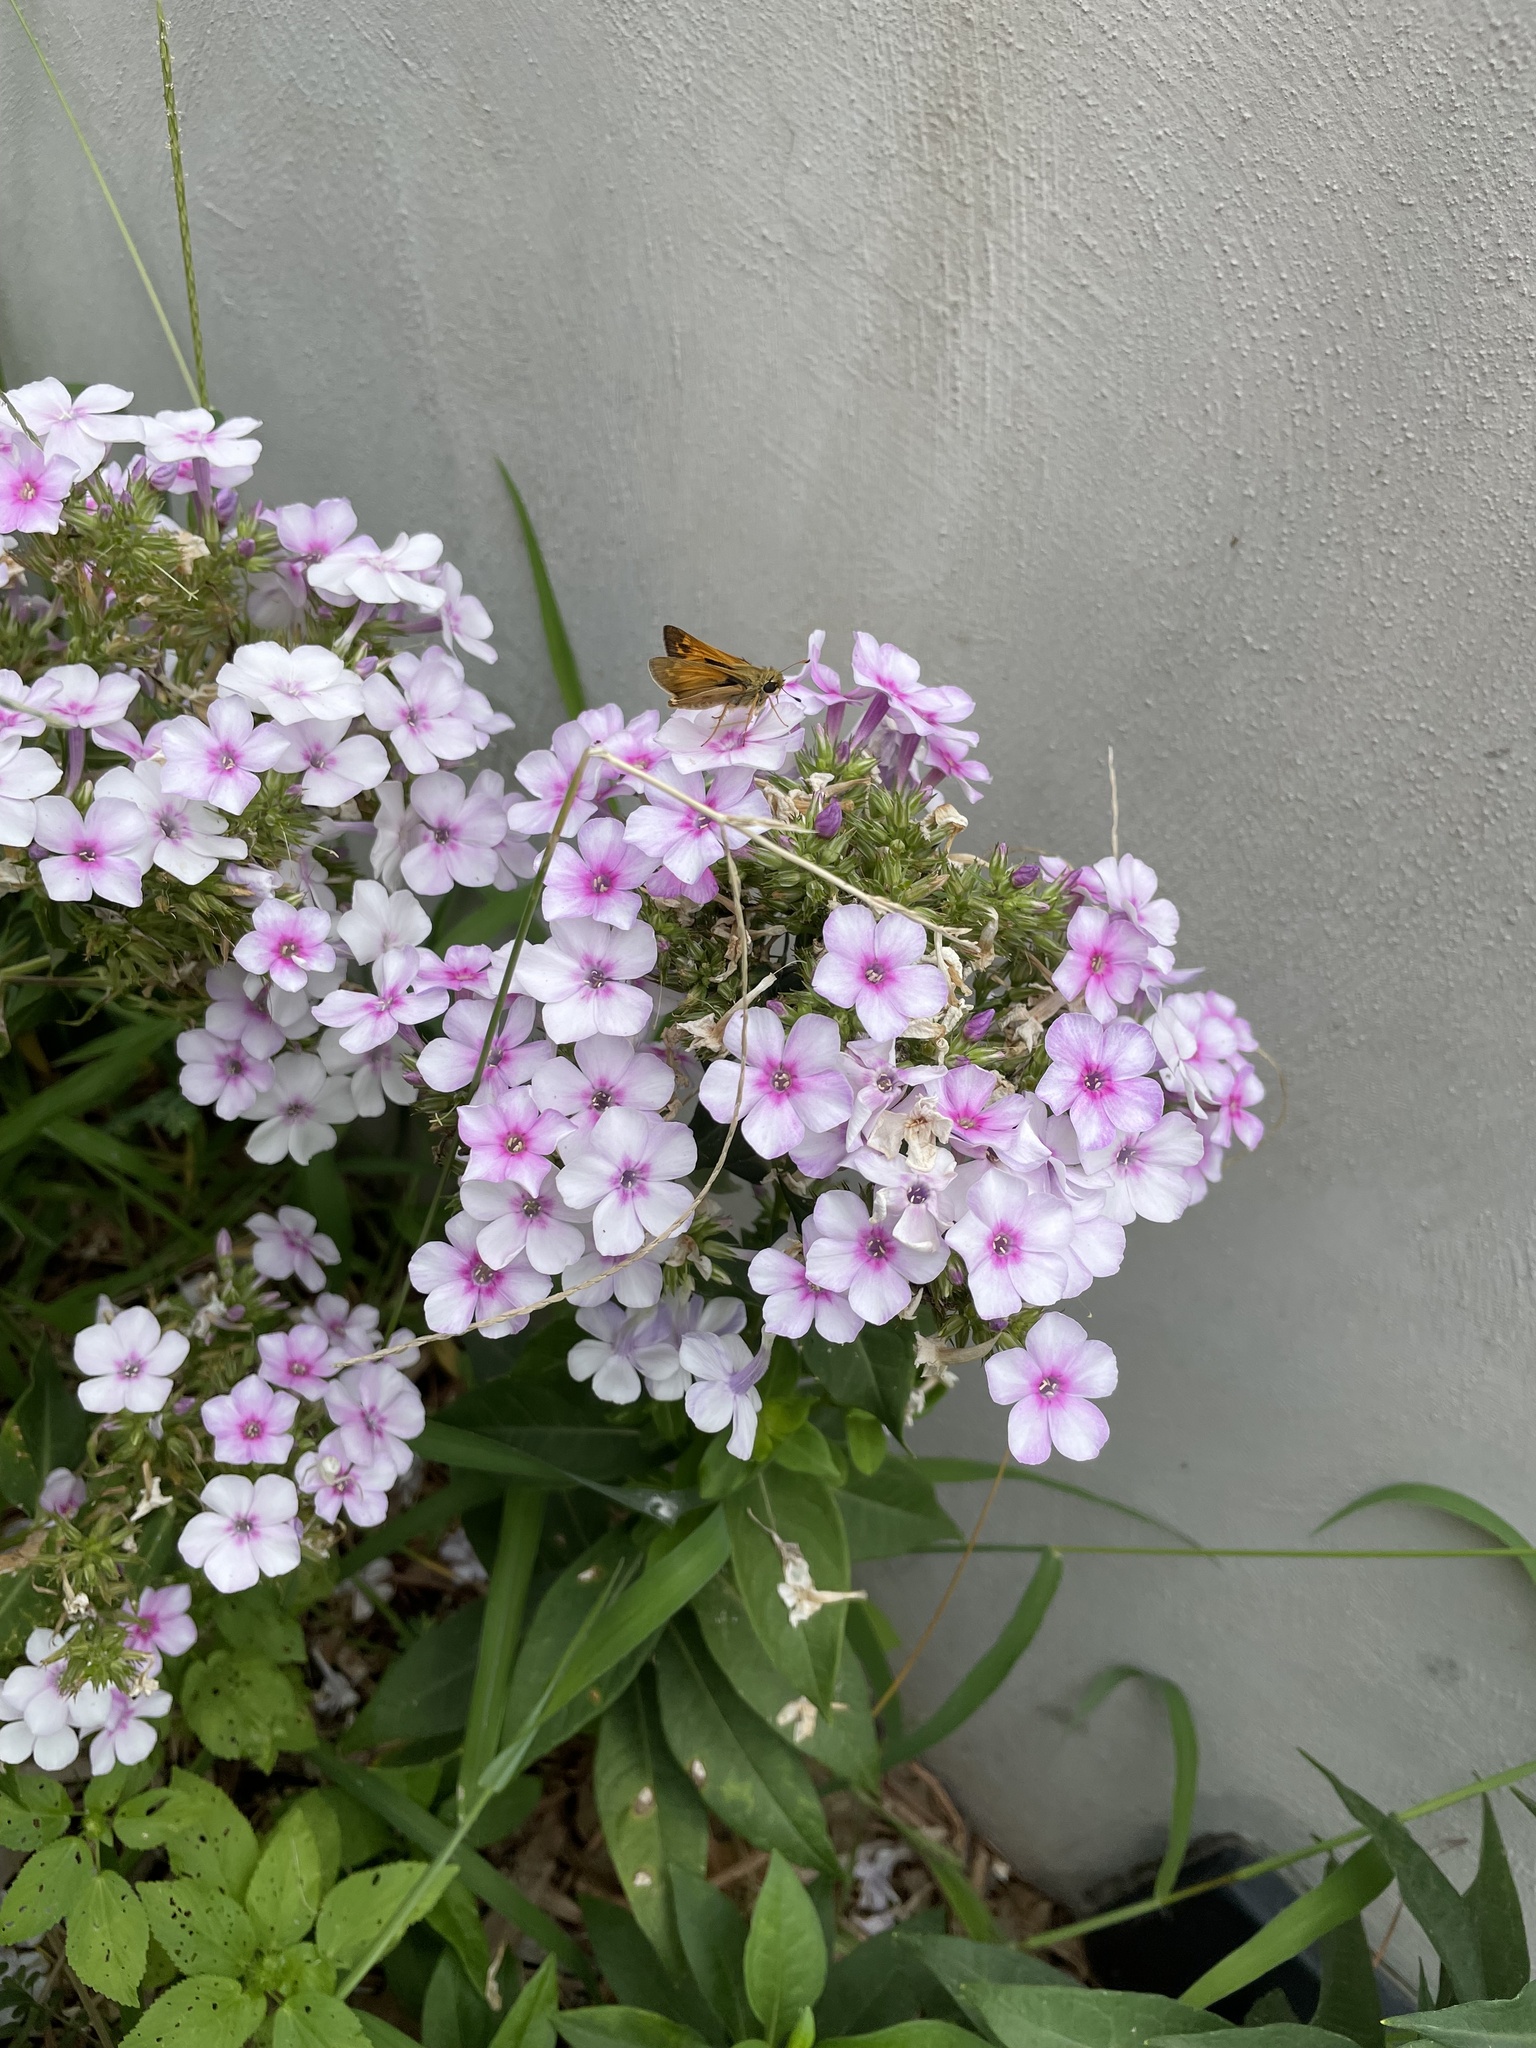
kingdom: Animalia
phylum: Arthropoda
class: Insecta
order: Lepidoptera
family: Hesperiidae
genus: Atalopedes
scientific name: Atalopedes
